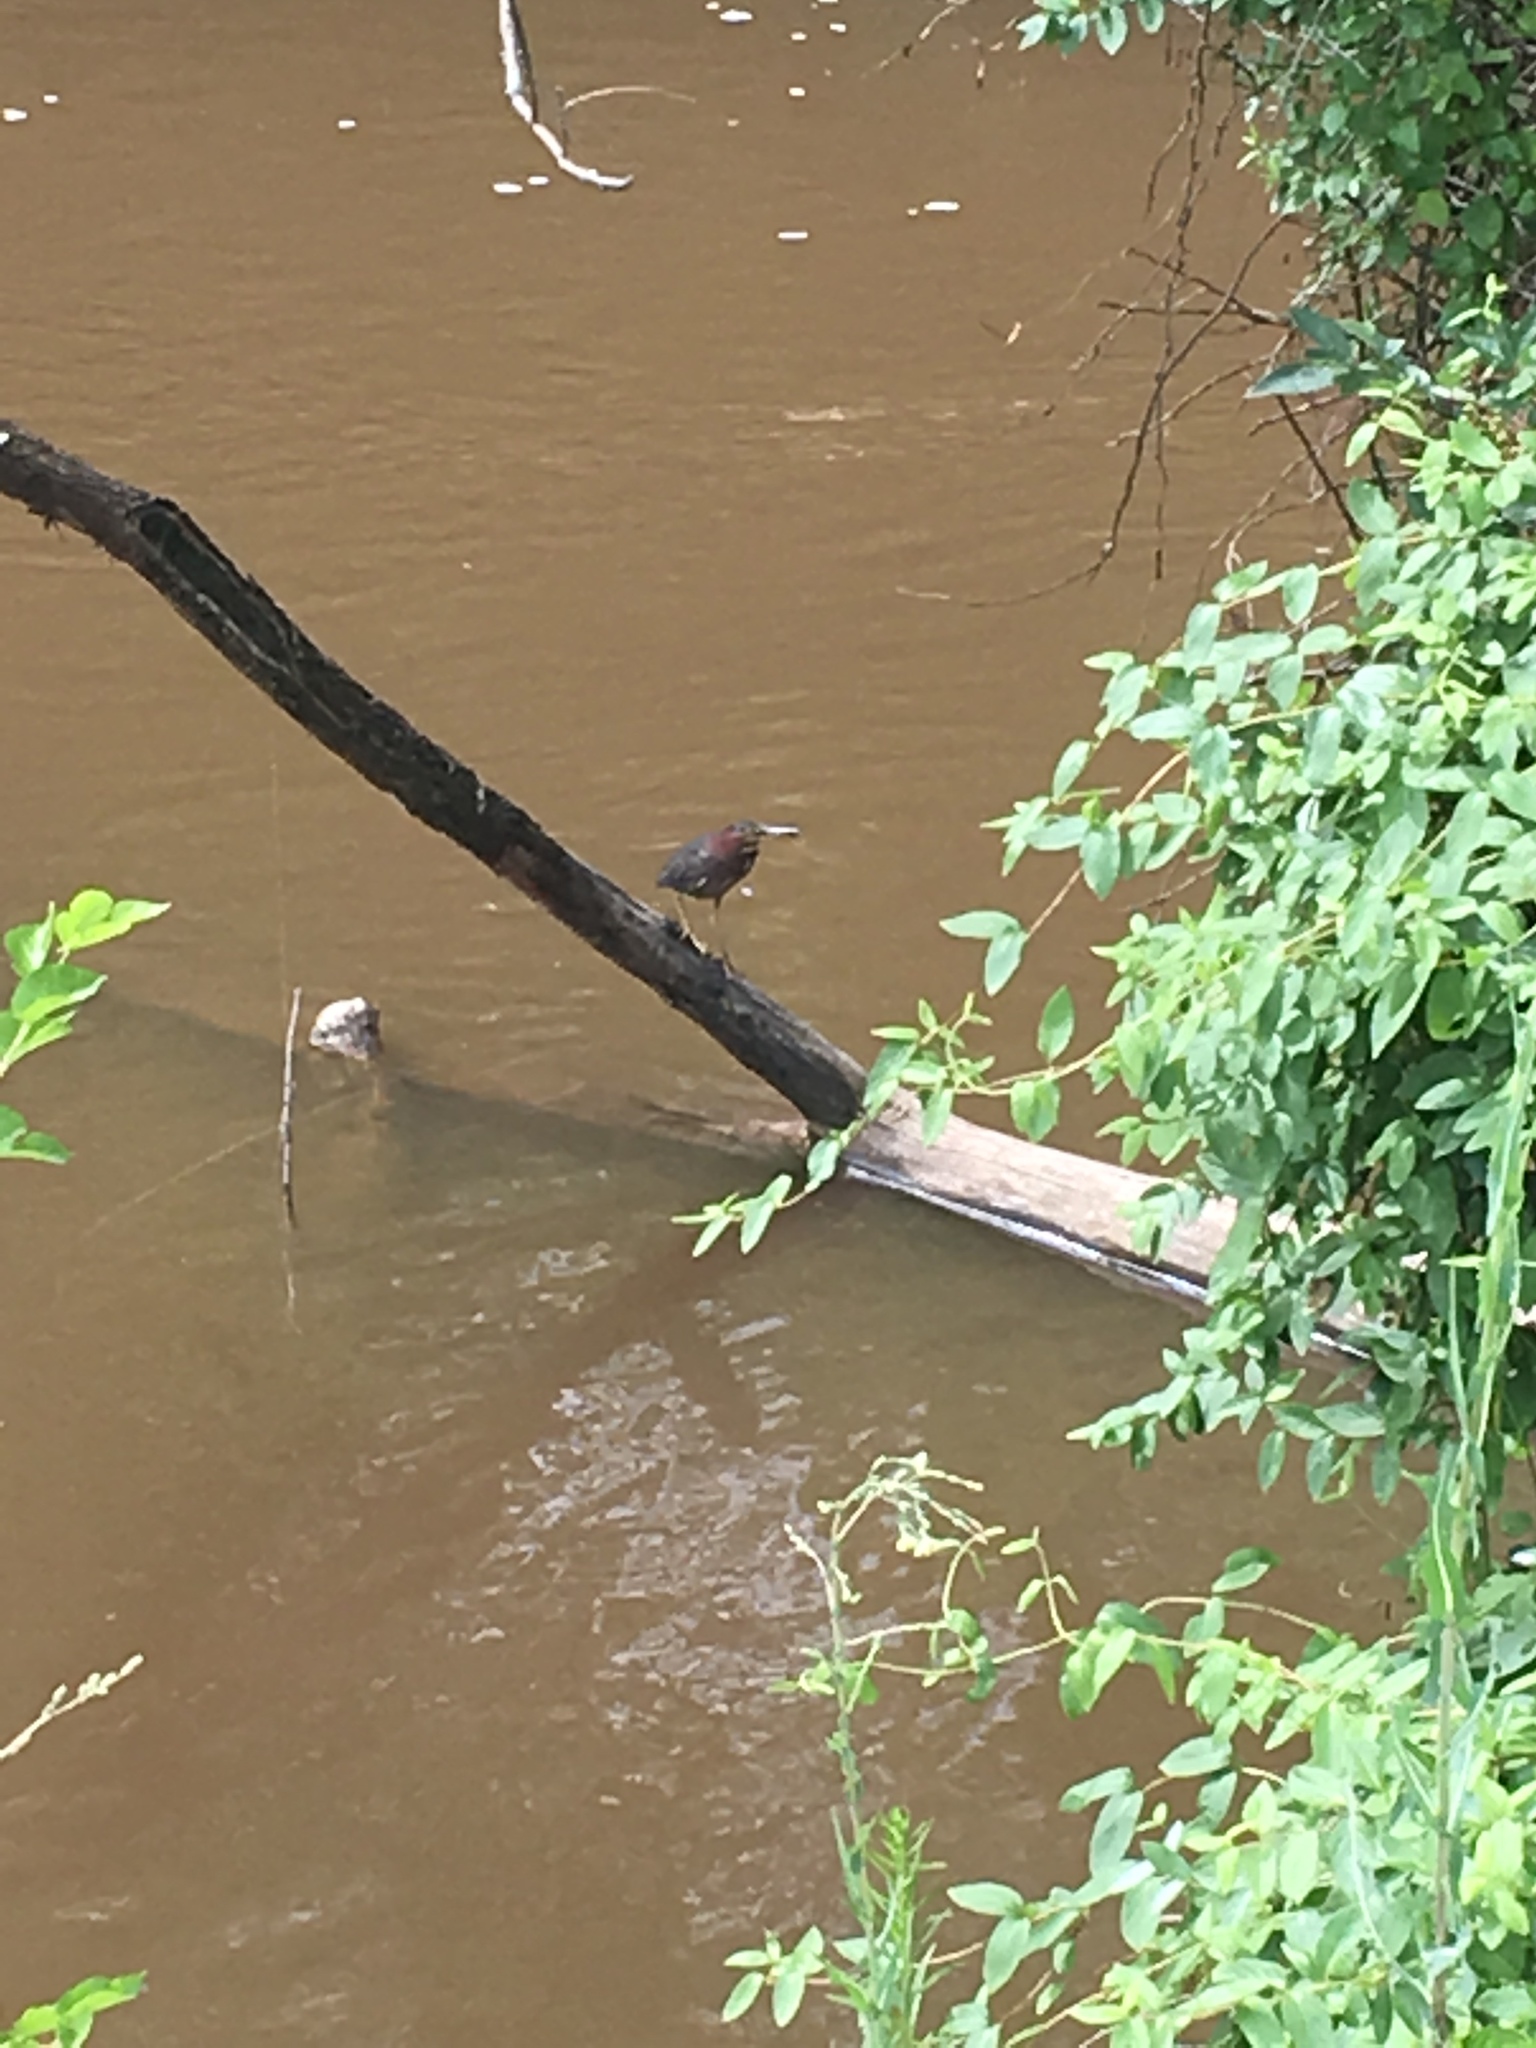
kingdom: Animalia
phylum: Chordata
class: Aves
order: Pelecaniformes
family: Ardeidae
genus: Butorides
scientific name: Butorides virescens
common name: Green heron
